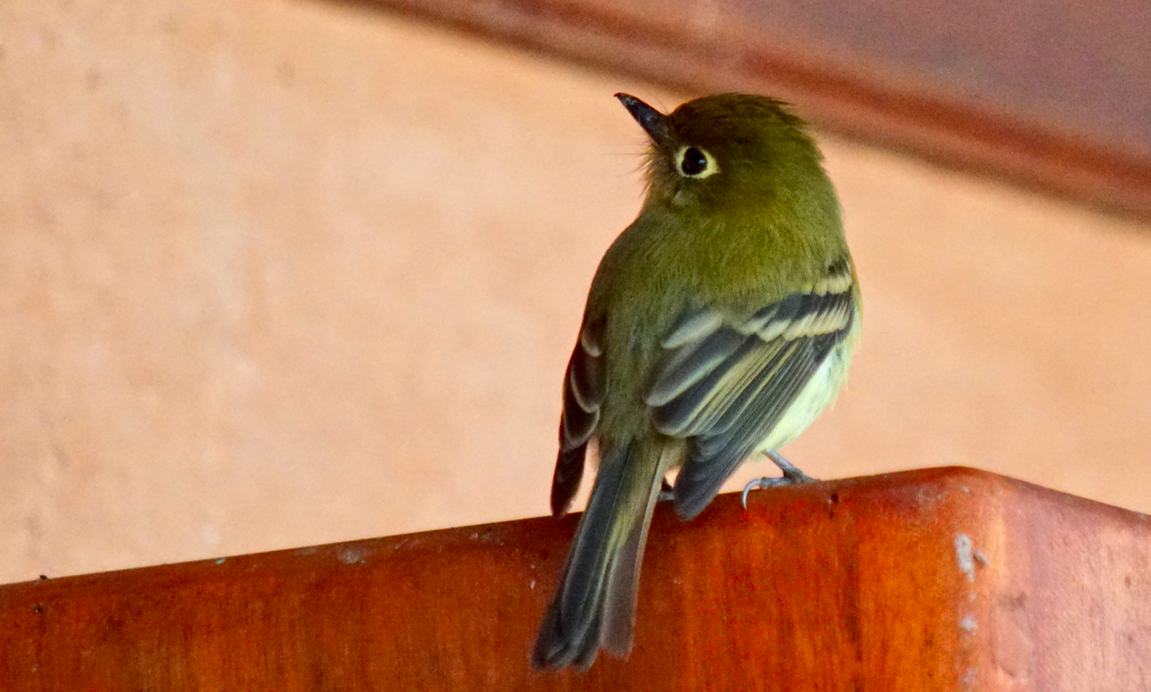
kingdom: Animalia
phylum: Chordata
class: Aves
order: Passeriformes
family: Tyrannidae
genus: Empidonax
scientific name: Empidonax flavescens
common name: Yellowish flycatcher
